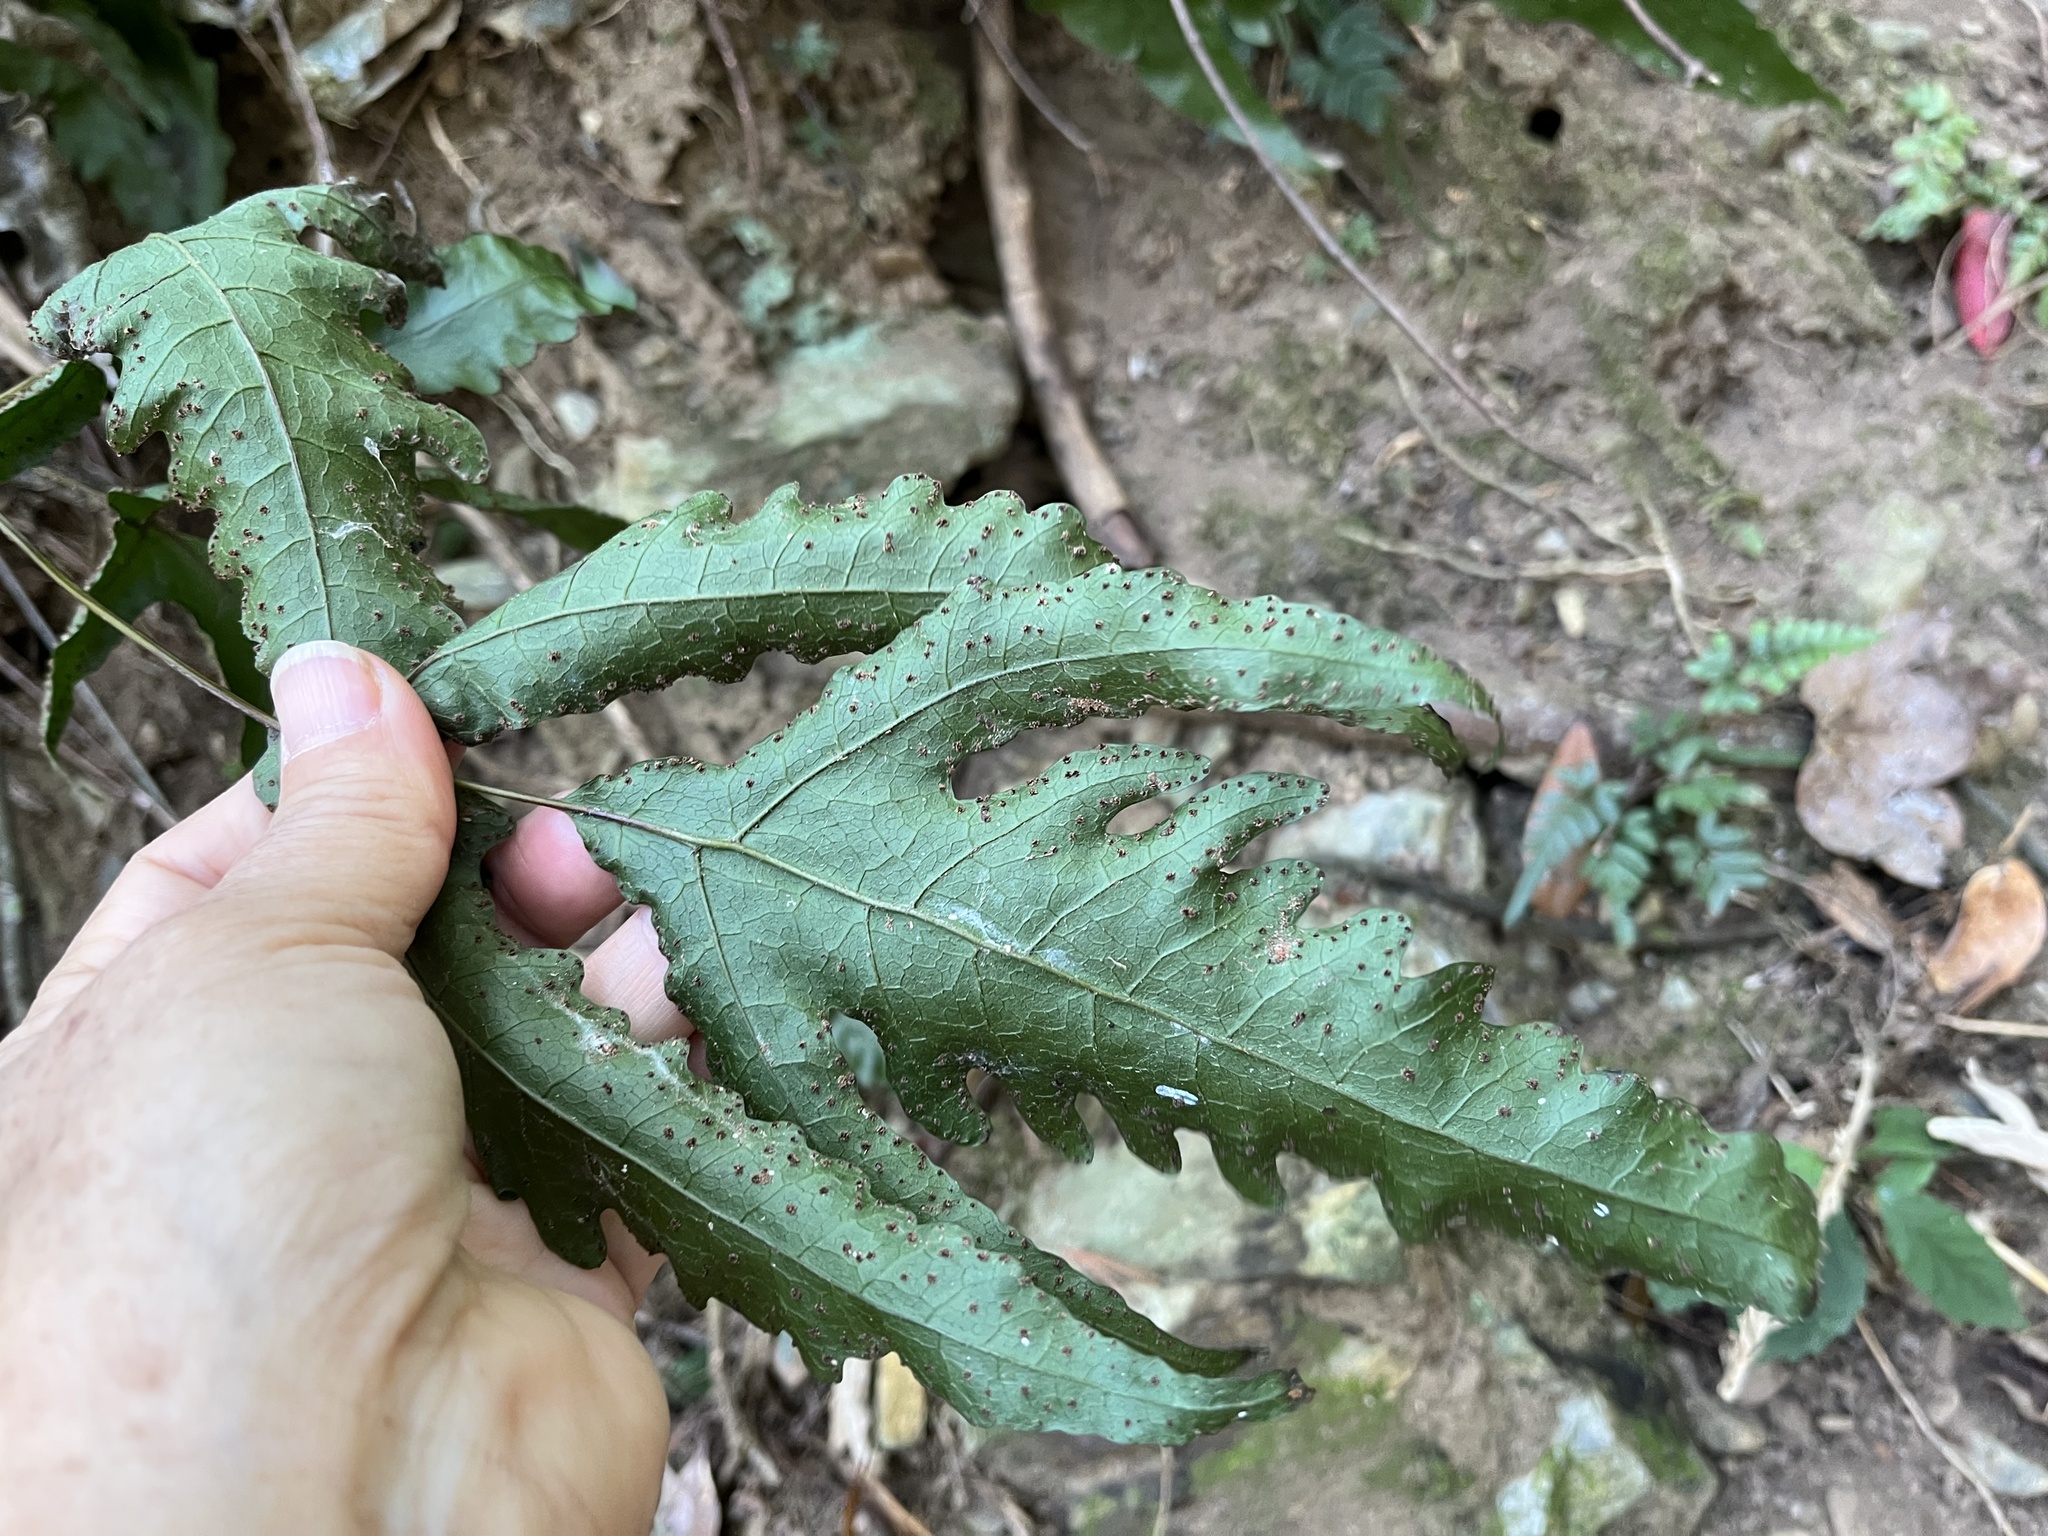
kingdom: Plantae
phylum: Tracheophyta
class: Polypodiopsida
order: Polypodiales
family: Tectariaceae
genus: Tectaria
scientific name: Tectaria subtriphylla
